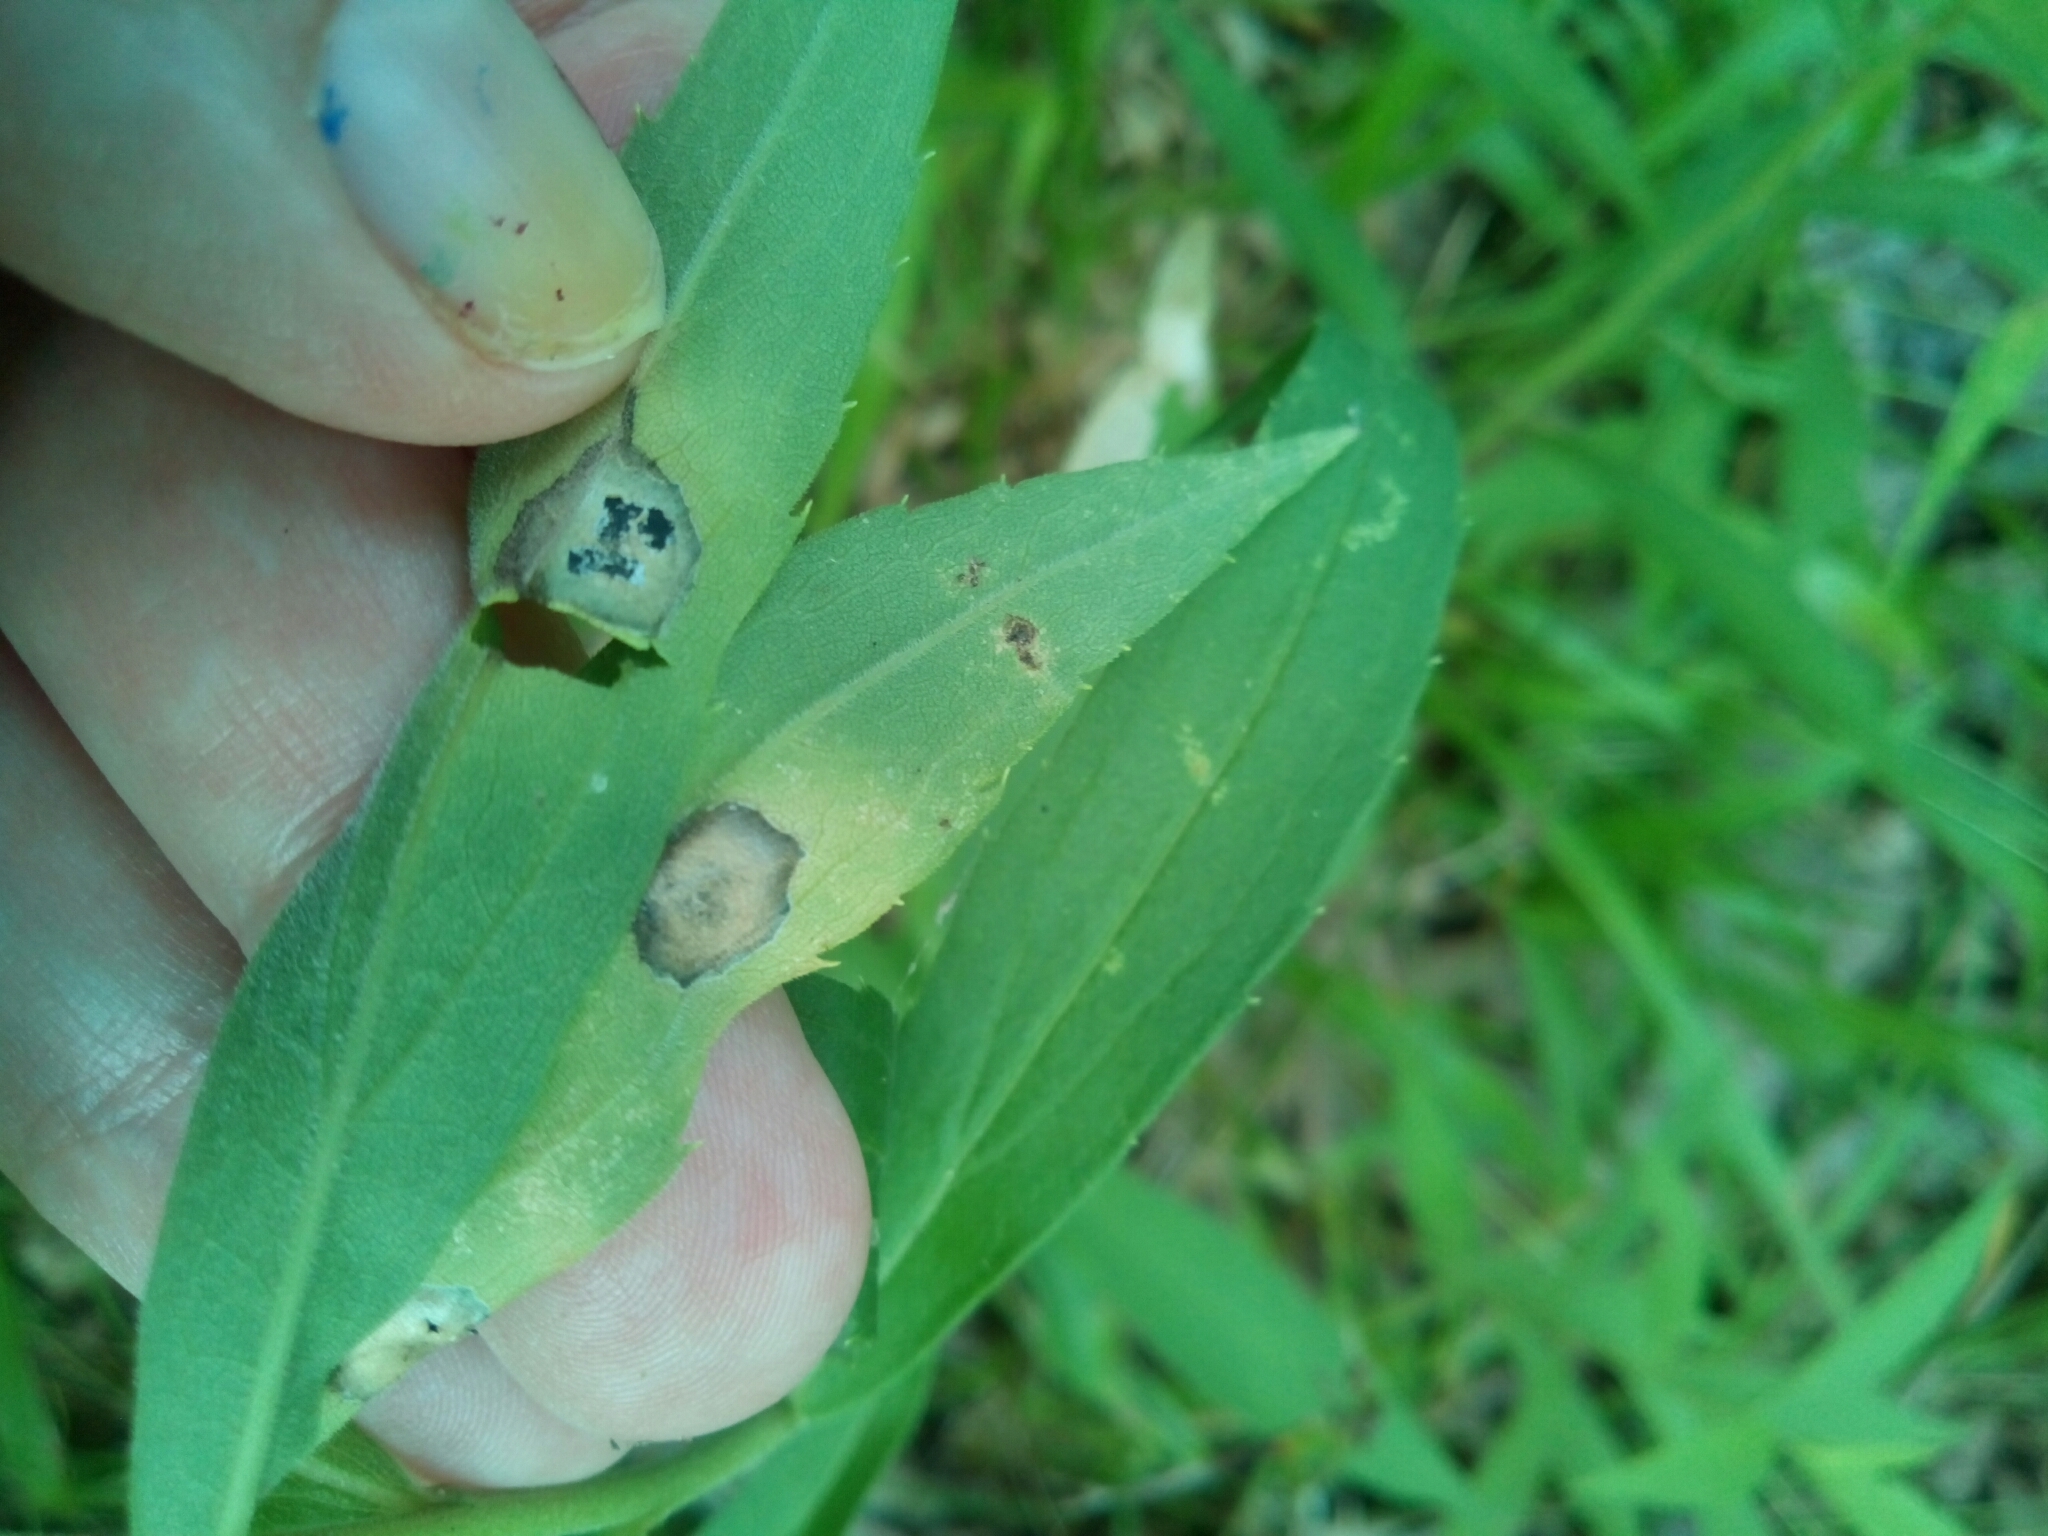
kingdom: Animalia
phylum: Arthropoda
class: Insecta
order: Diptera
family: Cecidomyiidae
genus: Asteromyia
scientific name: Asteromyia carbonifera
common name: Carbonifera goldenrod gall midge
